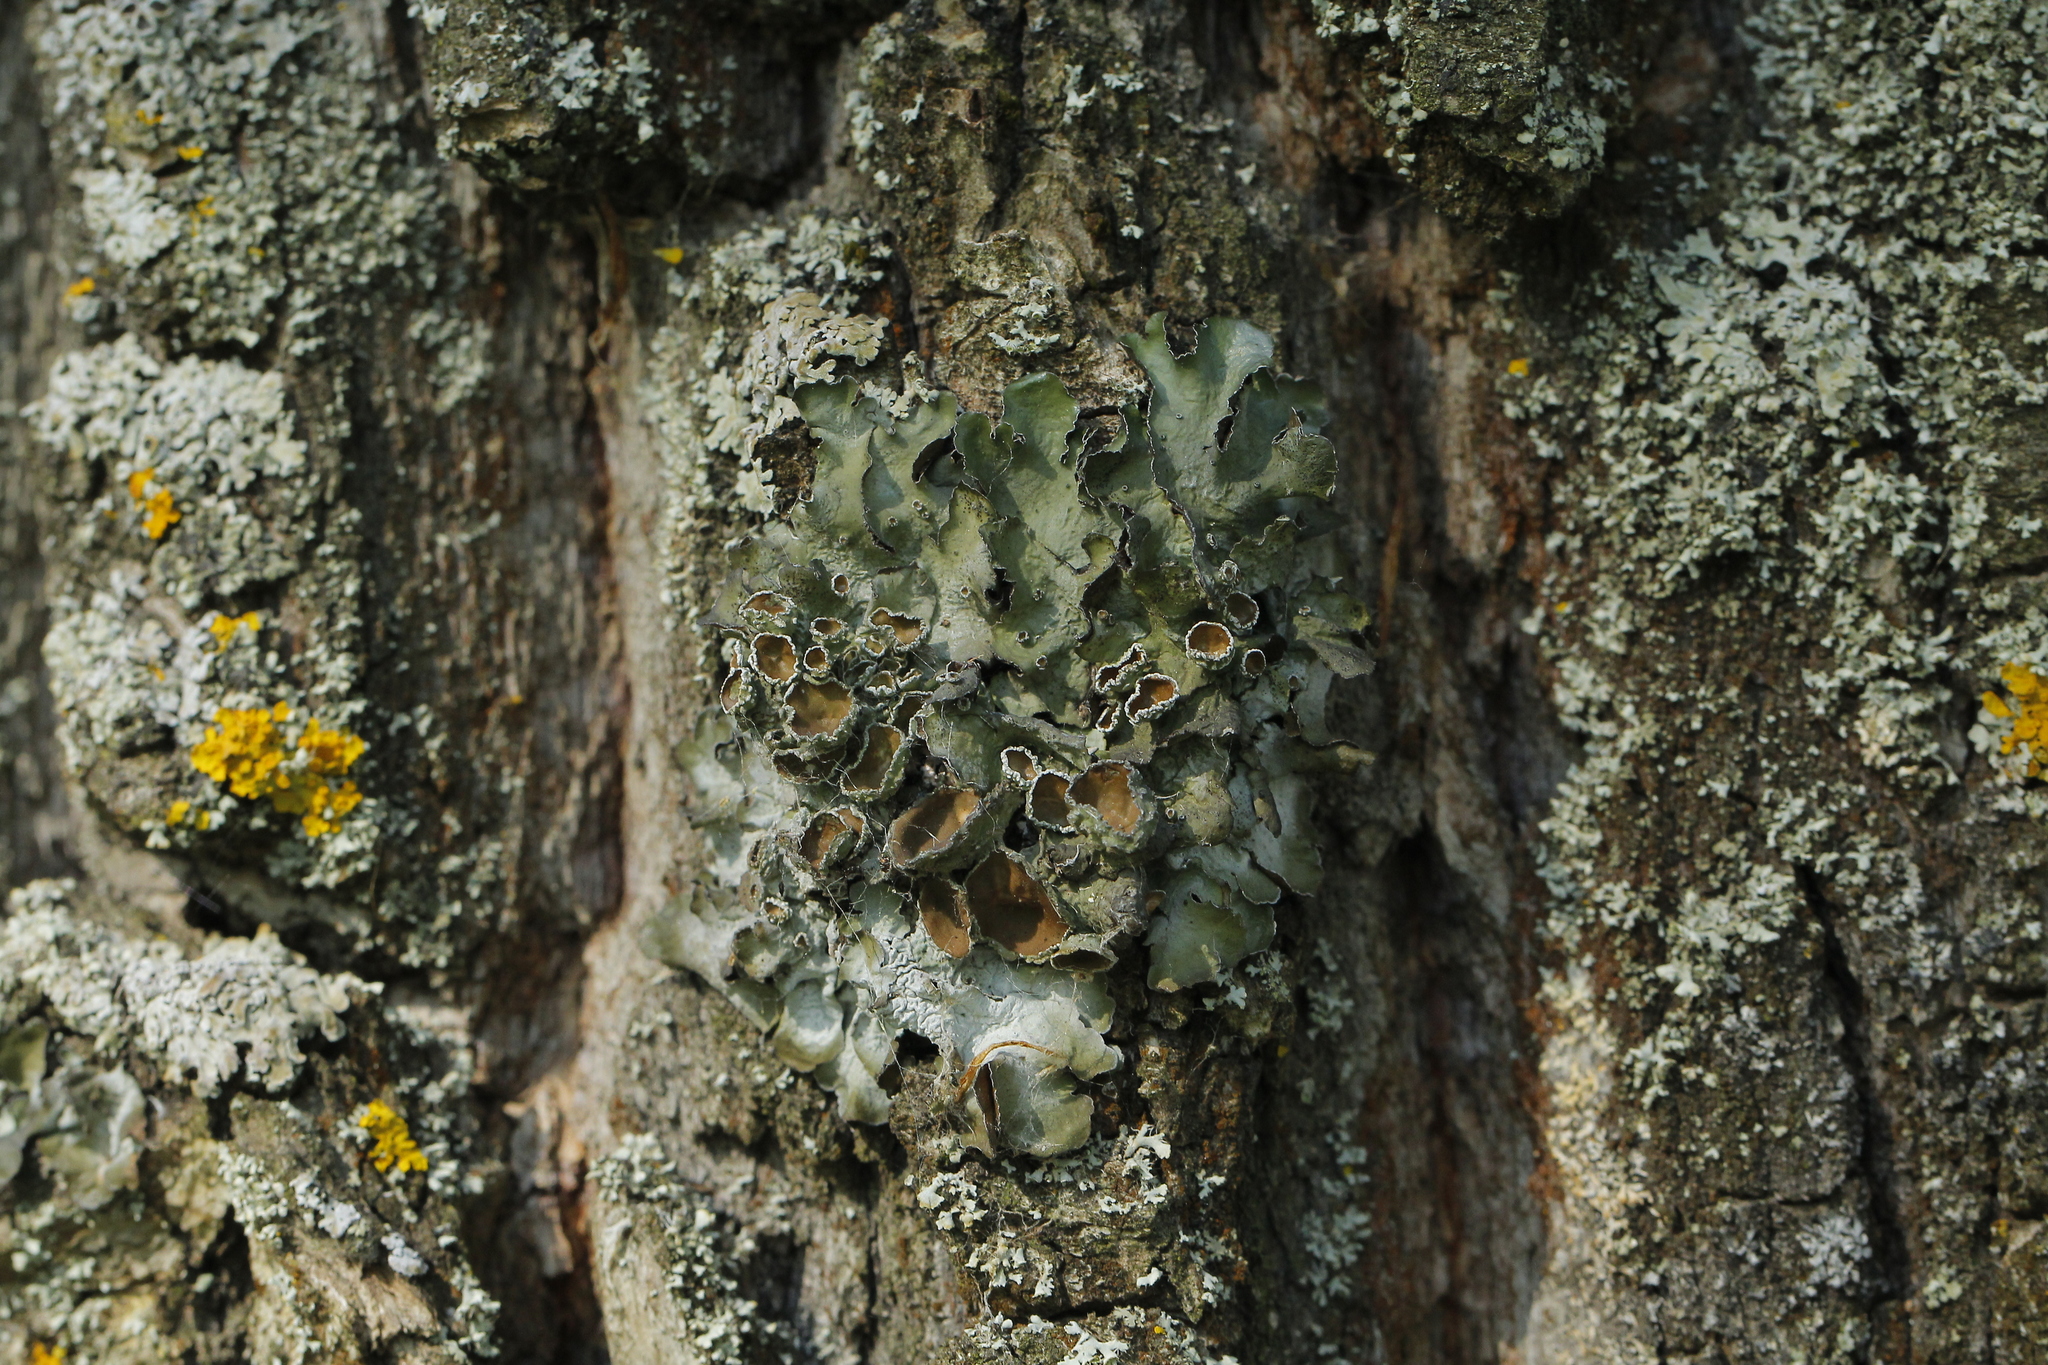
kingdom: Fungi
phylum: Ascomycota
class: Lecanoromycetes
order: Lecanorales
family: Parmeliaceae
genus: Pleurosticta
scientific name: Pleurosticta acetabulum
